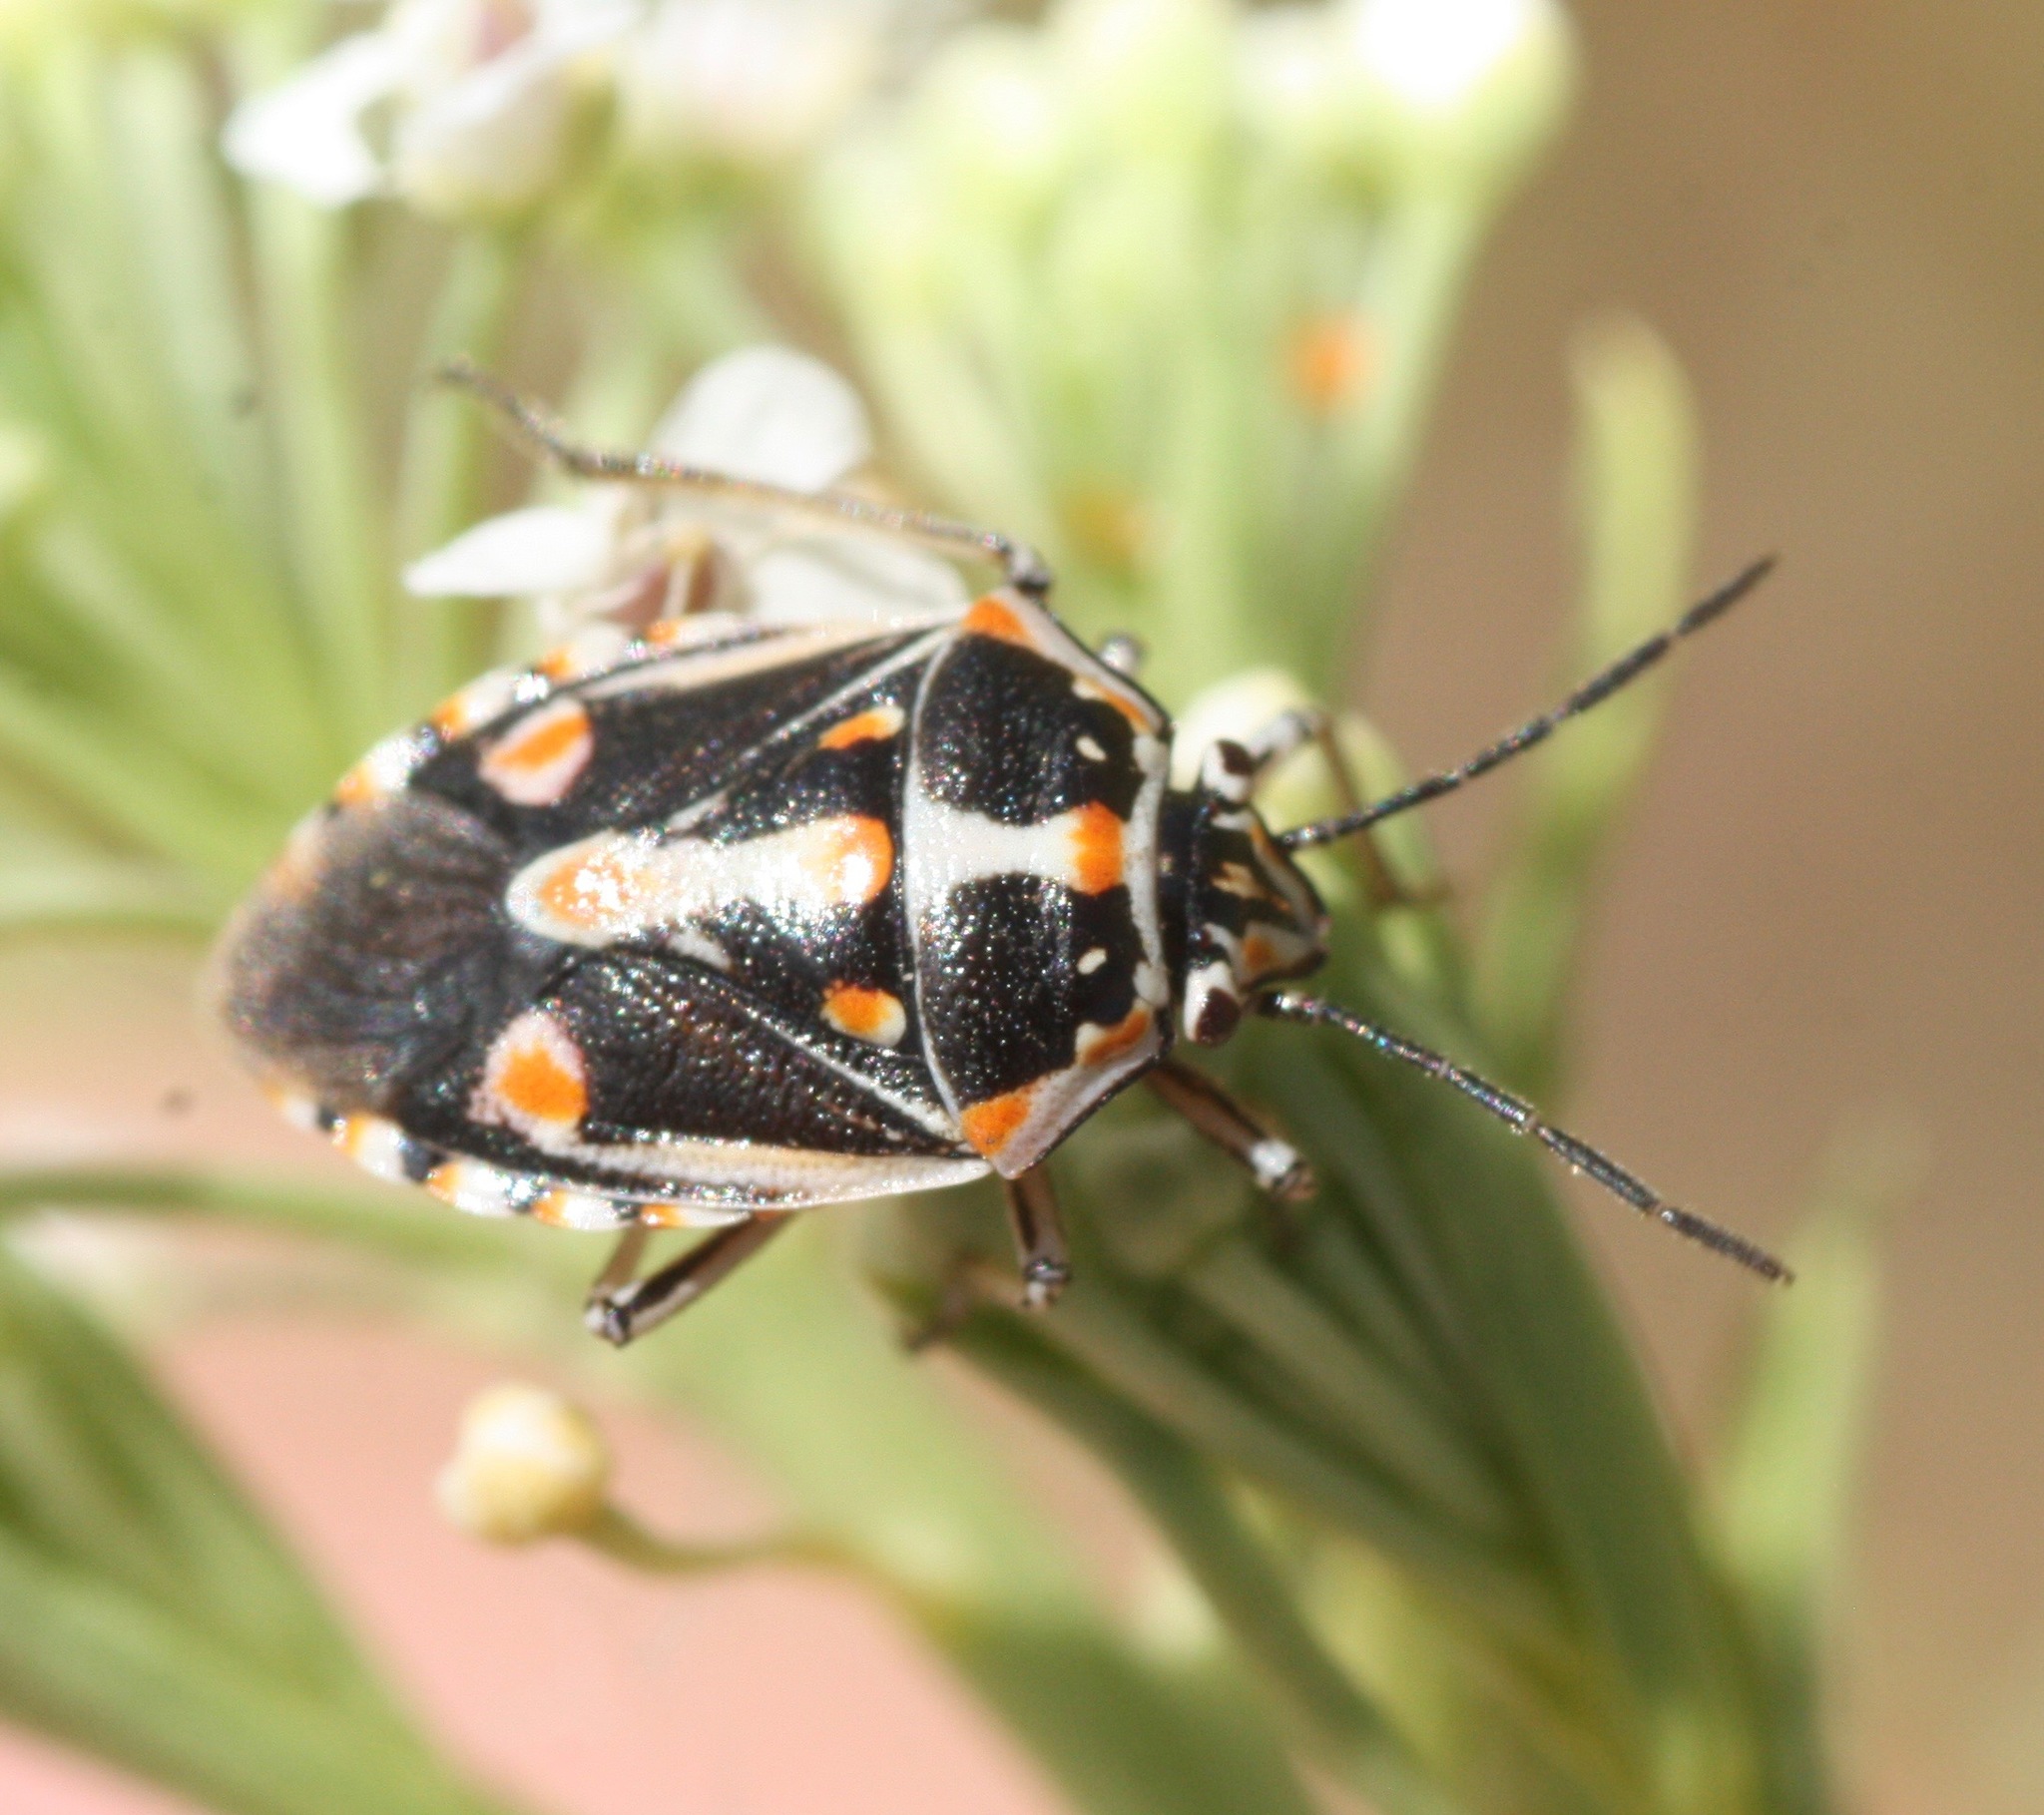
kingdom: Animalia
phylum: Arthropoda
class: Insecta
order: Hemiptera
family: Pentatomidae
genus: Bagrada
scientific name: Bagrada hilaris
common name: Bagrada bug
